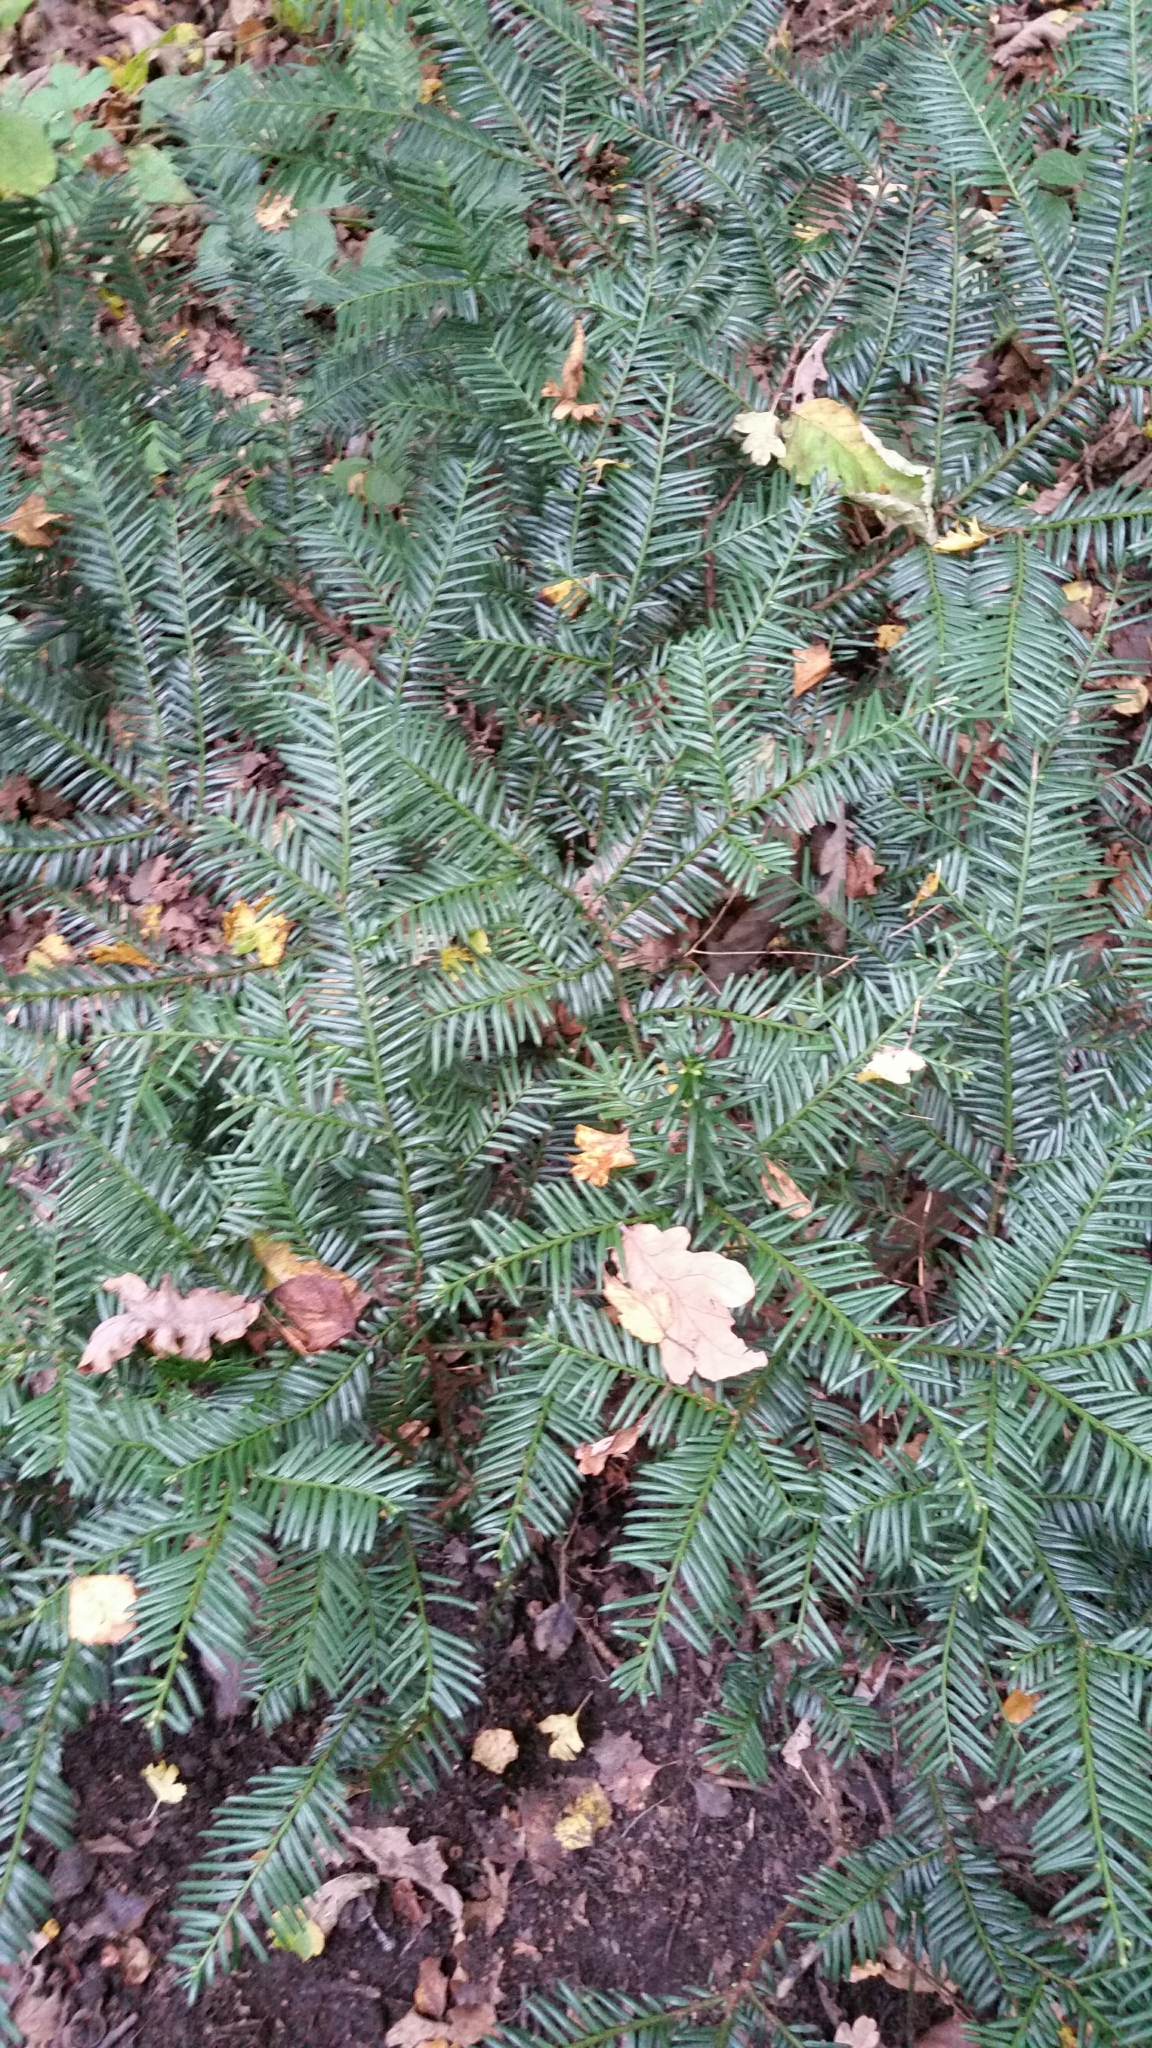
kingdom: Plantae
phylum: Tracheophyta
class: Pinopsida
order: Pinales
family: Taxaceae
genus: Taxus
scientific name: Taxus baccata
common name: Yew
